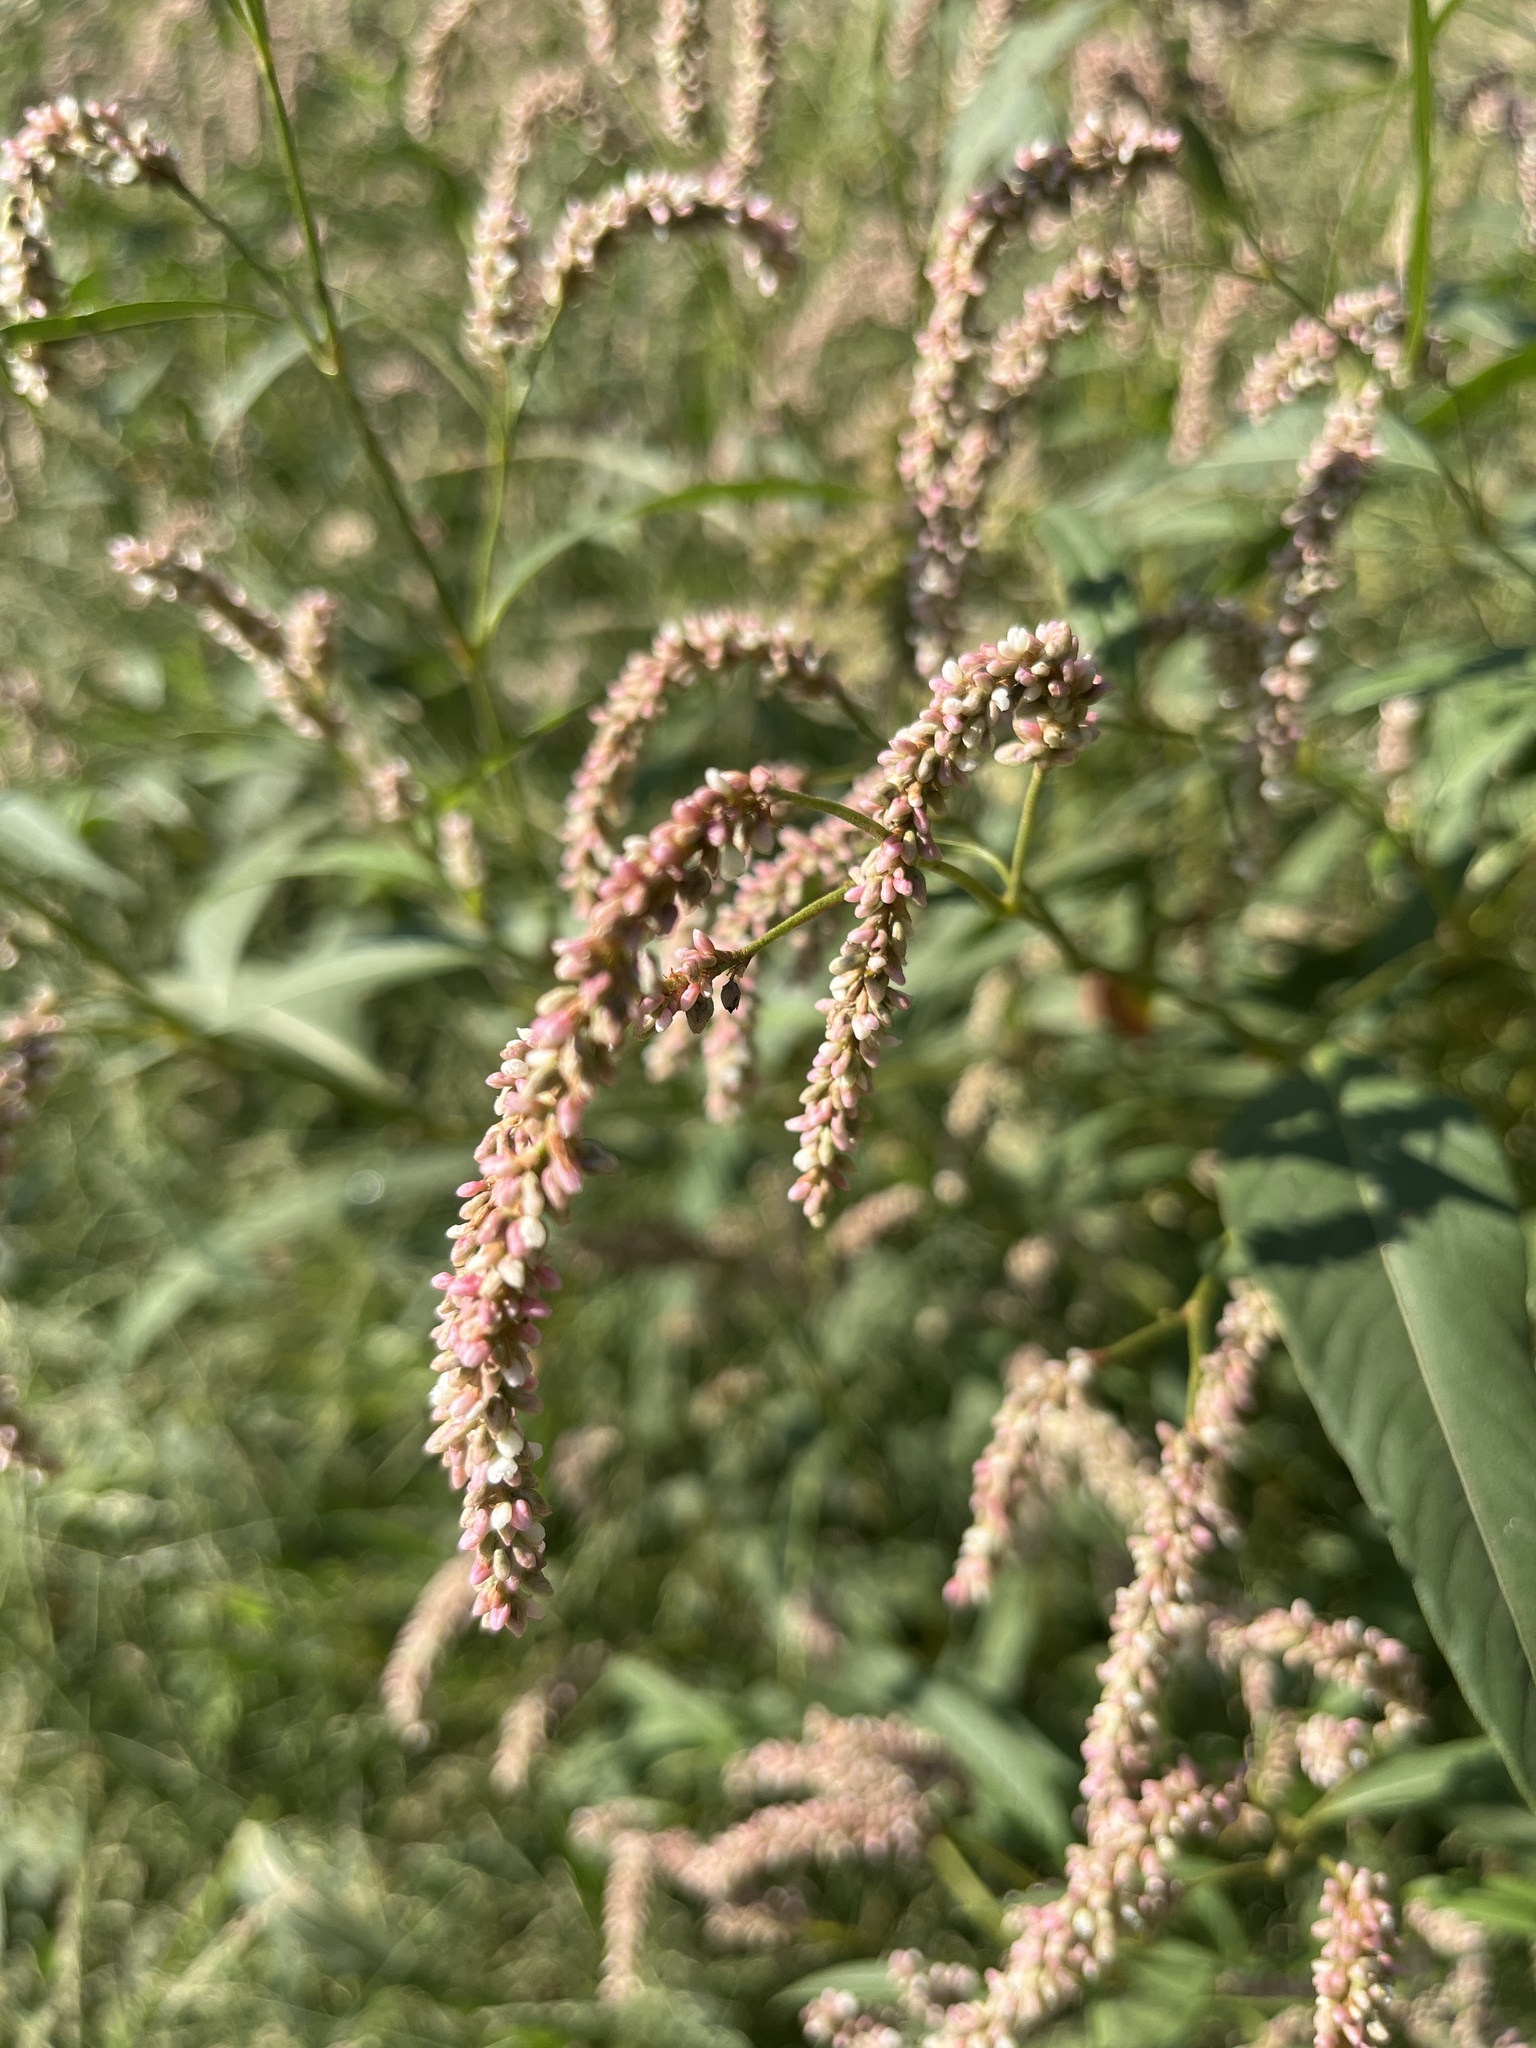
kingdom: Plantae
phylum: Tracheophyta
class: Magnoliopsida
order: Caryophyllales
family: Polygonaceae
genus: Persicaria
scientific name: Persicaria lapathifolia
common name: Curlytop knotweed
